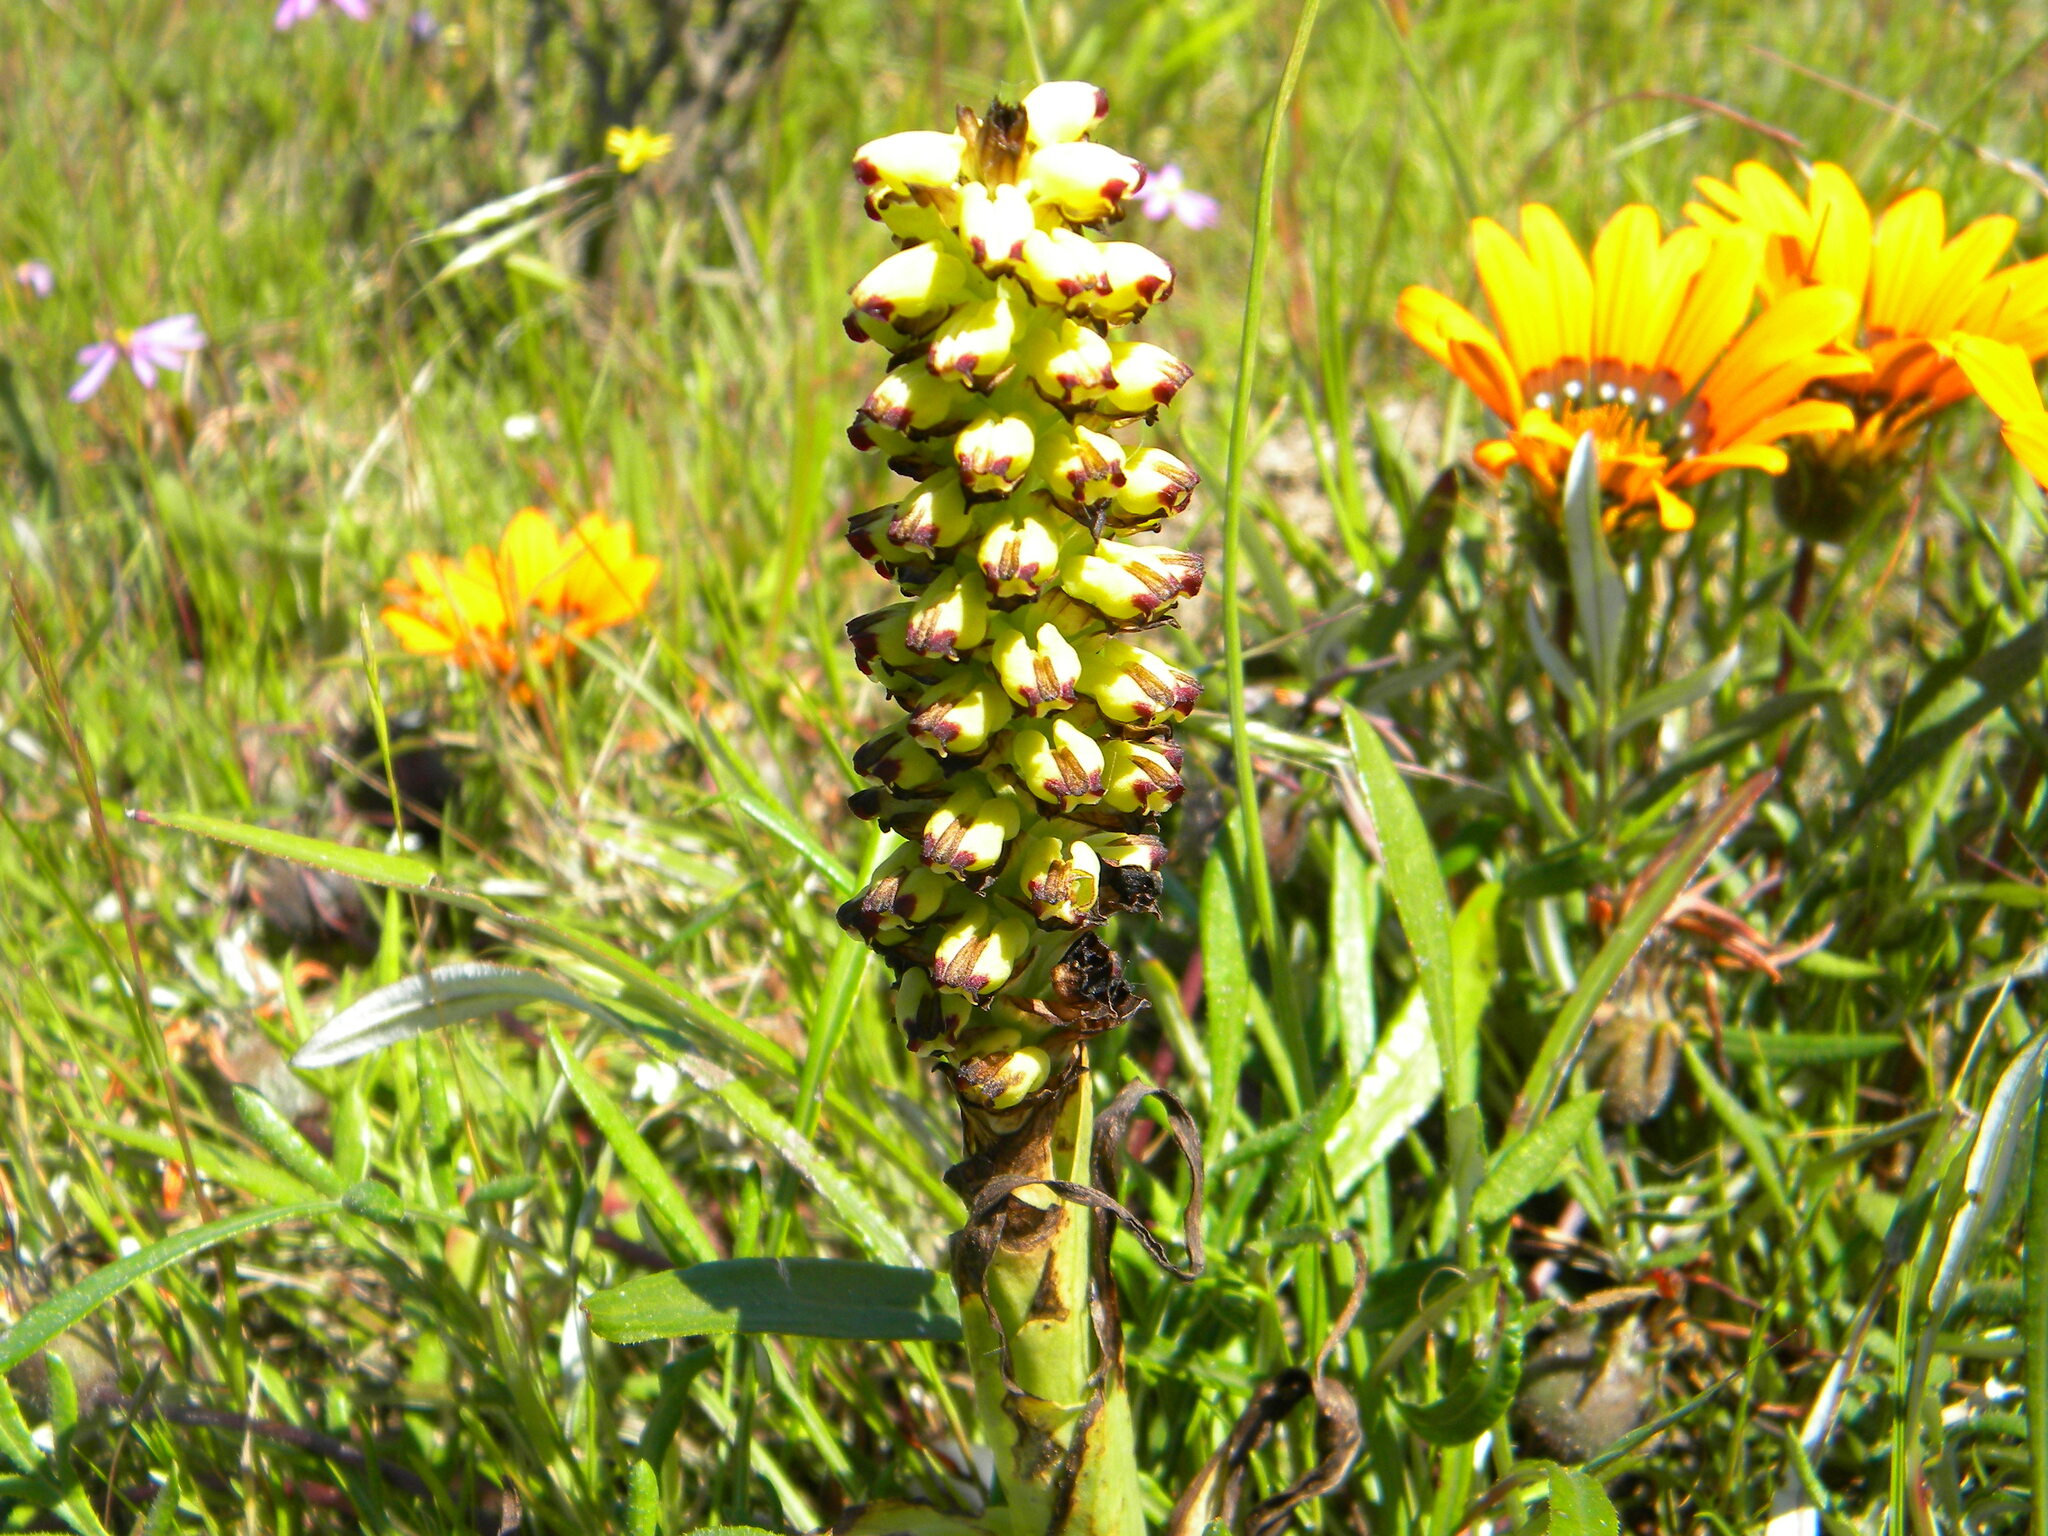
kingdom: Plantae
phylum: Tracheophyta
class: Liliopsida
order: Asparagales
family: Orchidaceae
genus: Corycium
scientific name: Corycium orobanchoides
